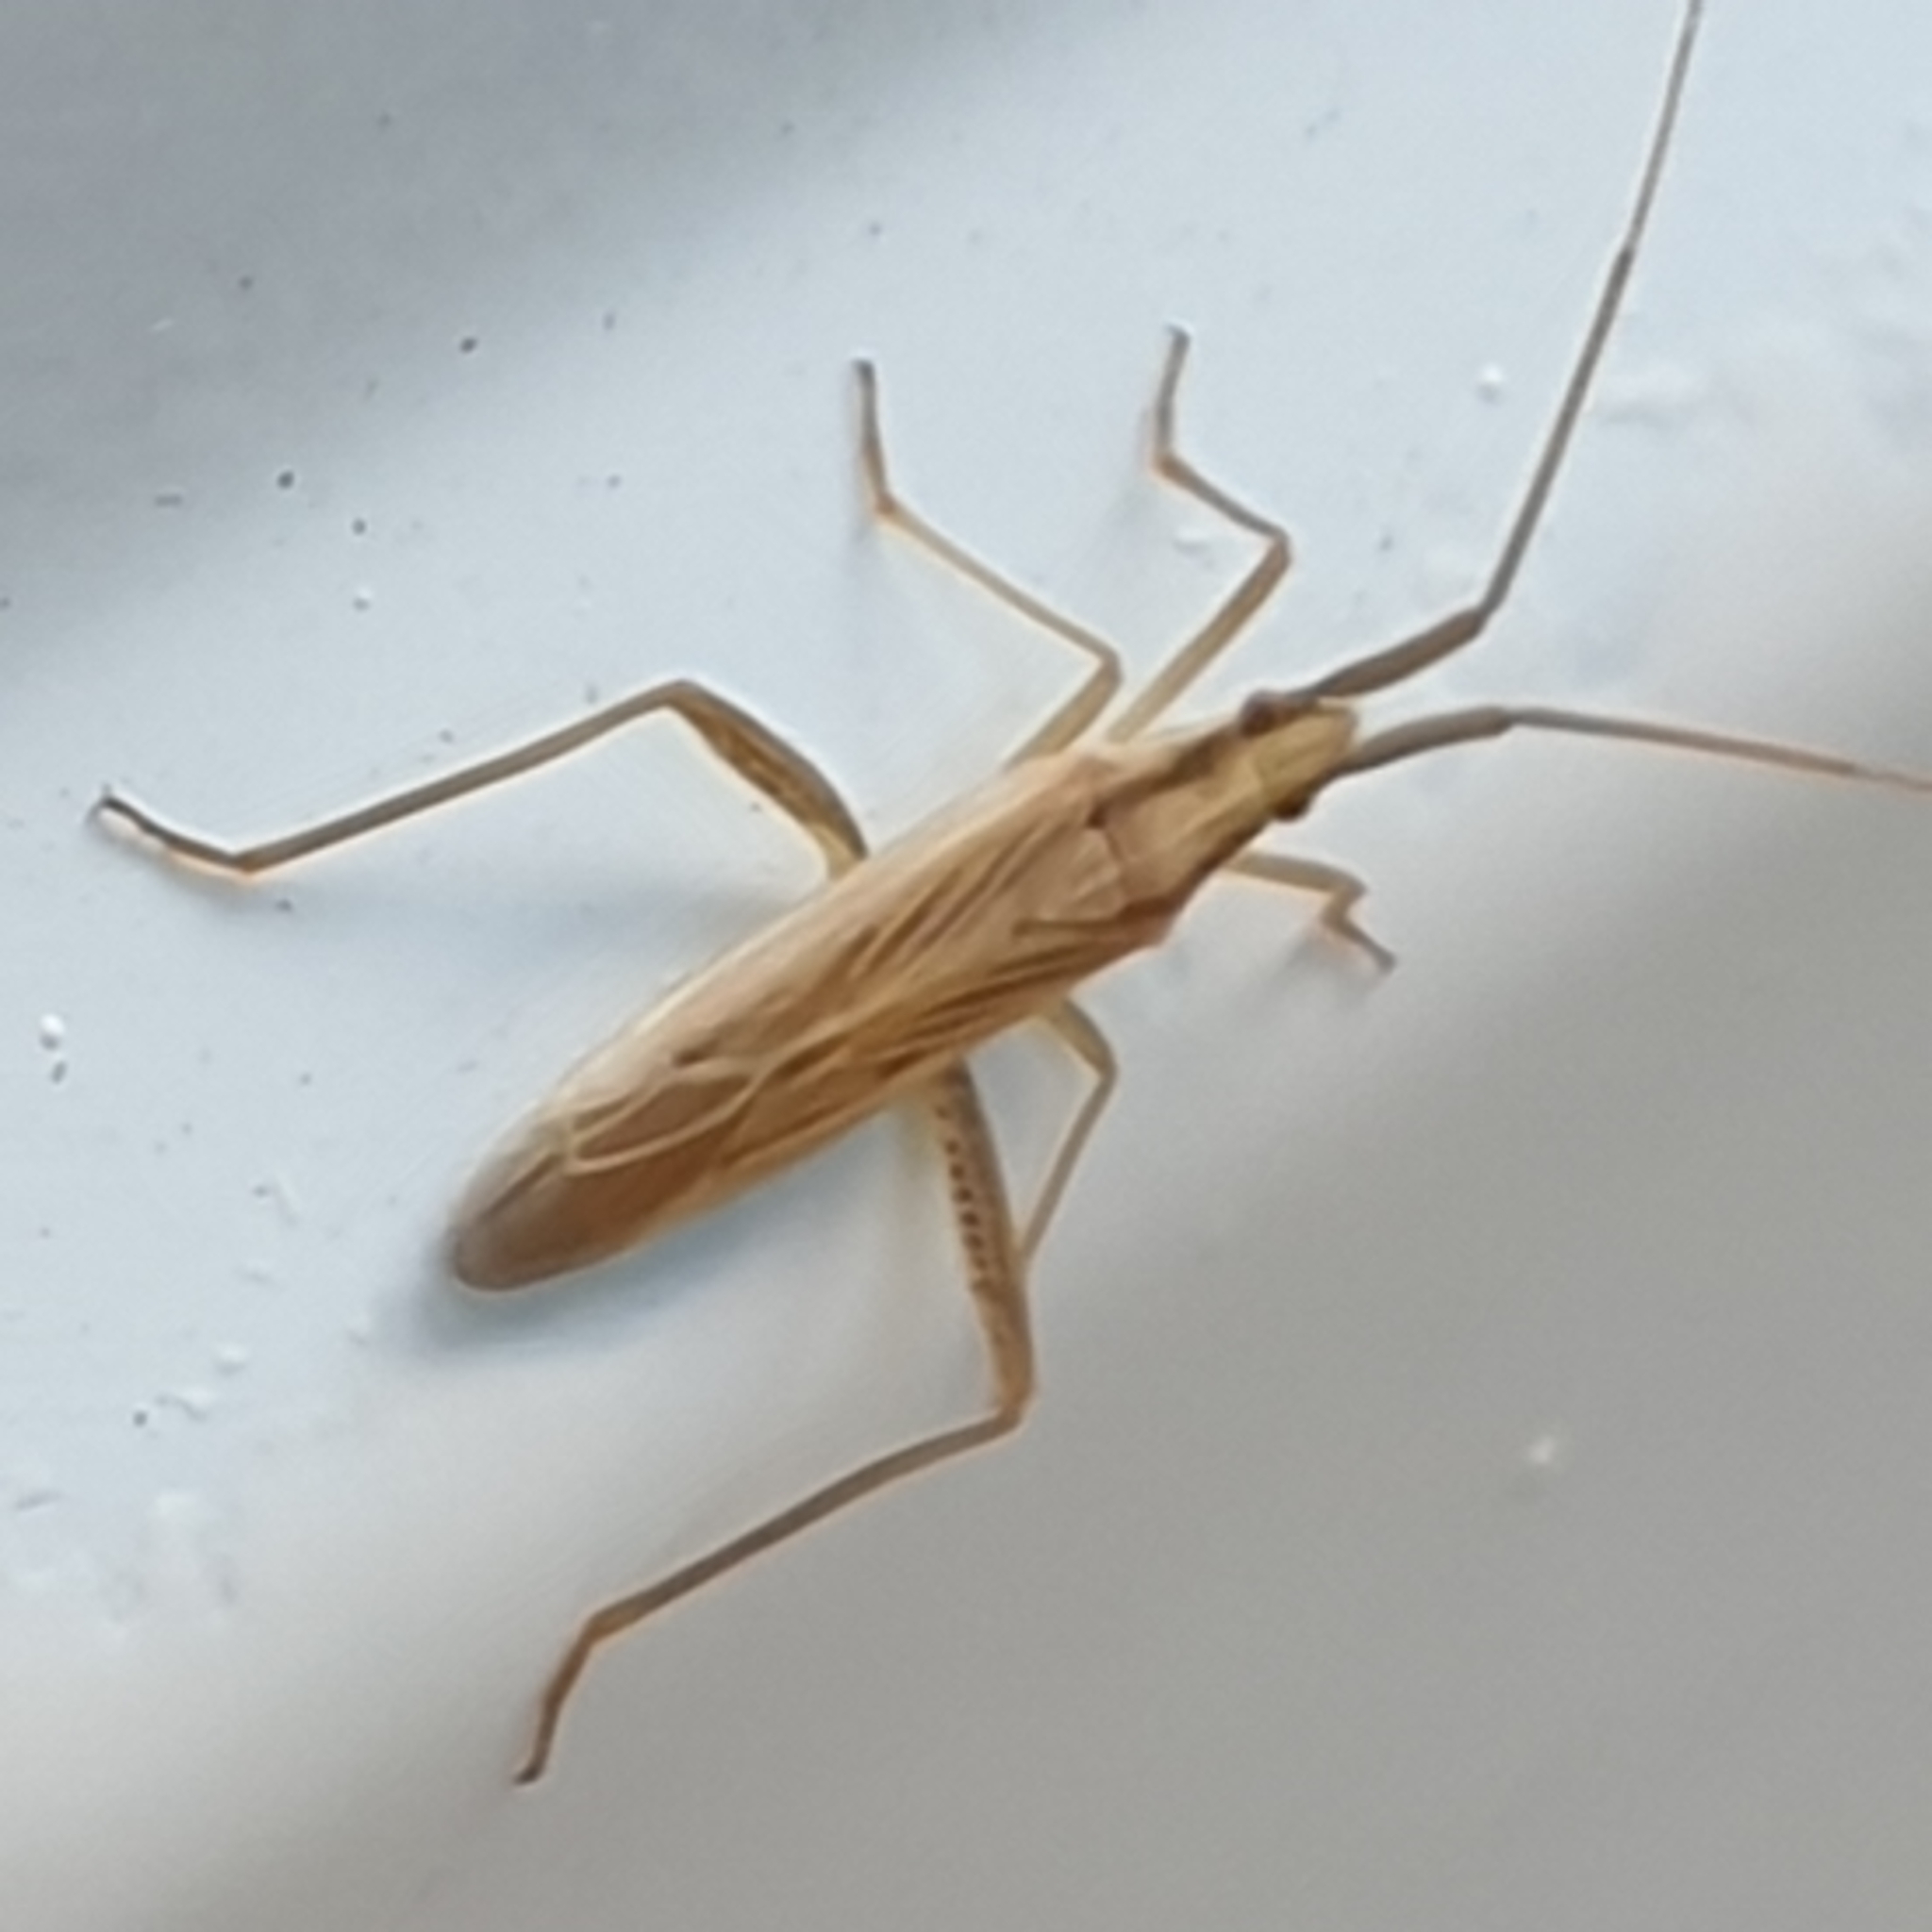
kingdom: Animalia
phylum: Arthropoda
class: Insecta
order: Hemiptera
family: Miridae
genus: Stenodema
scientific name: Stenodema laevigata
